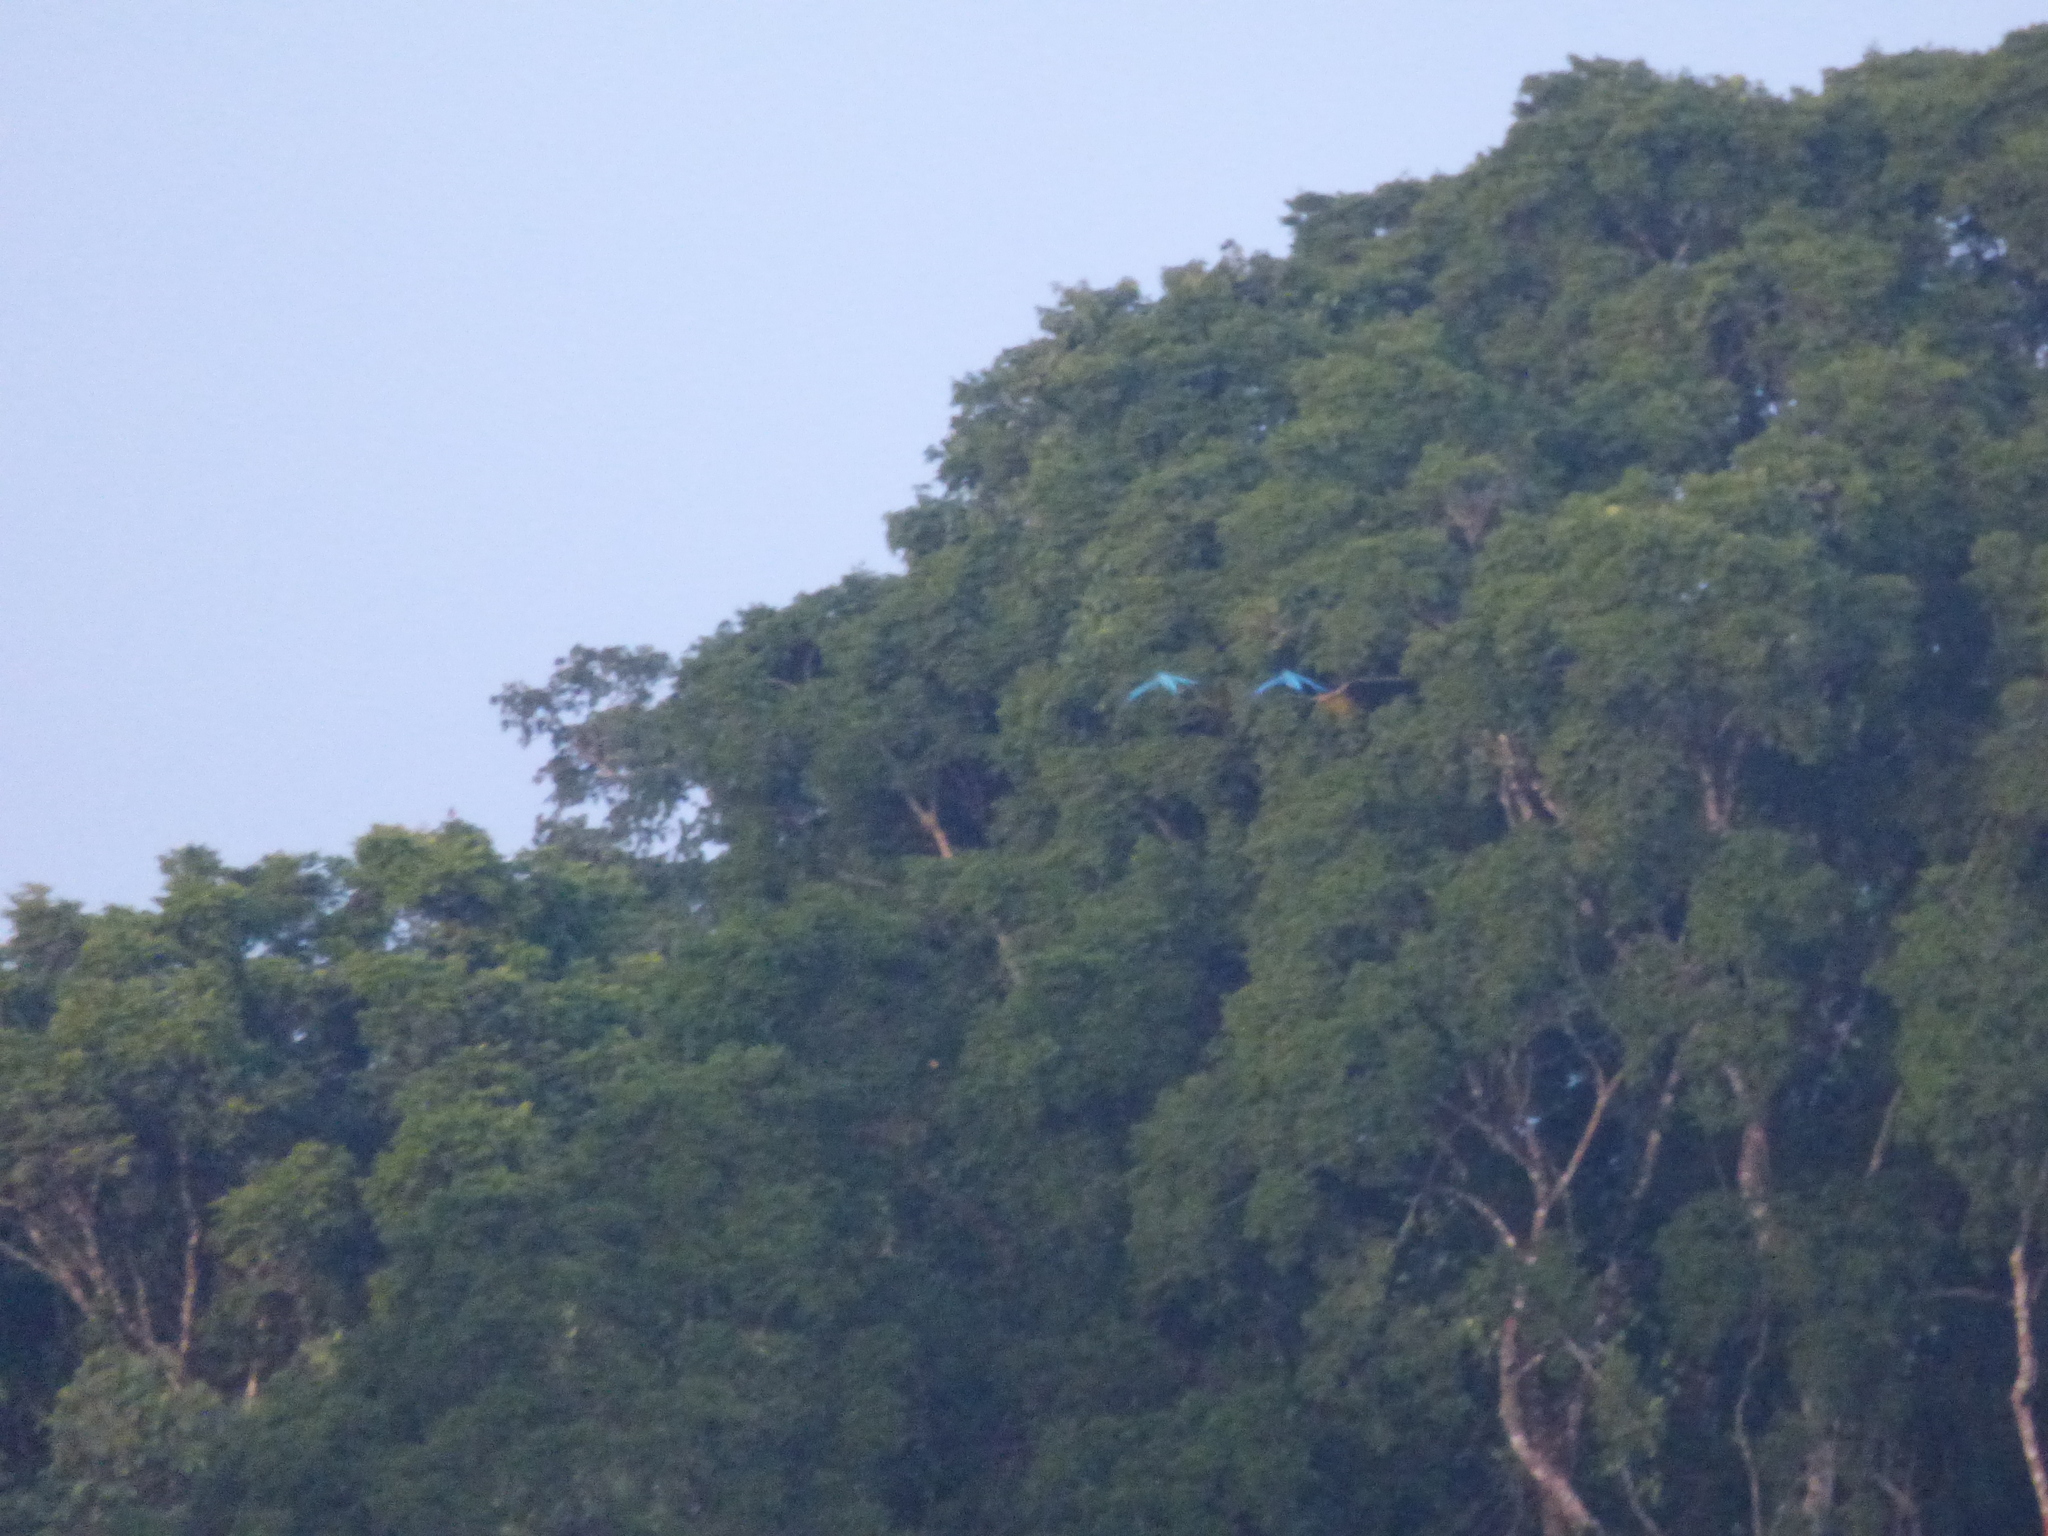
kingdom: Animalia
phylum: Chordata
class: Aves
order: Psittaciformes
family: Psittacidae
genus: Ara
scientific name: Ara ararauna
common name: Blue-and-yellow macaw
